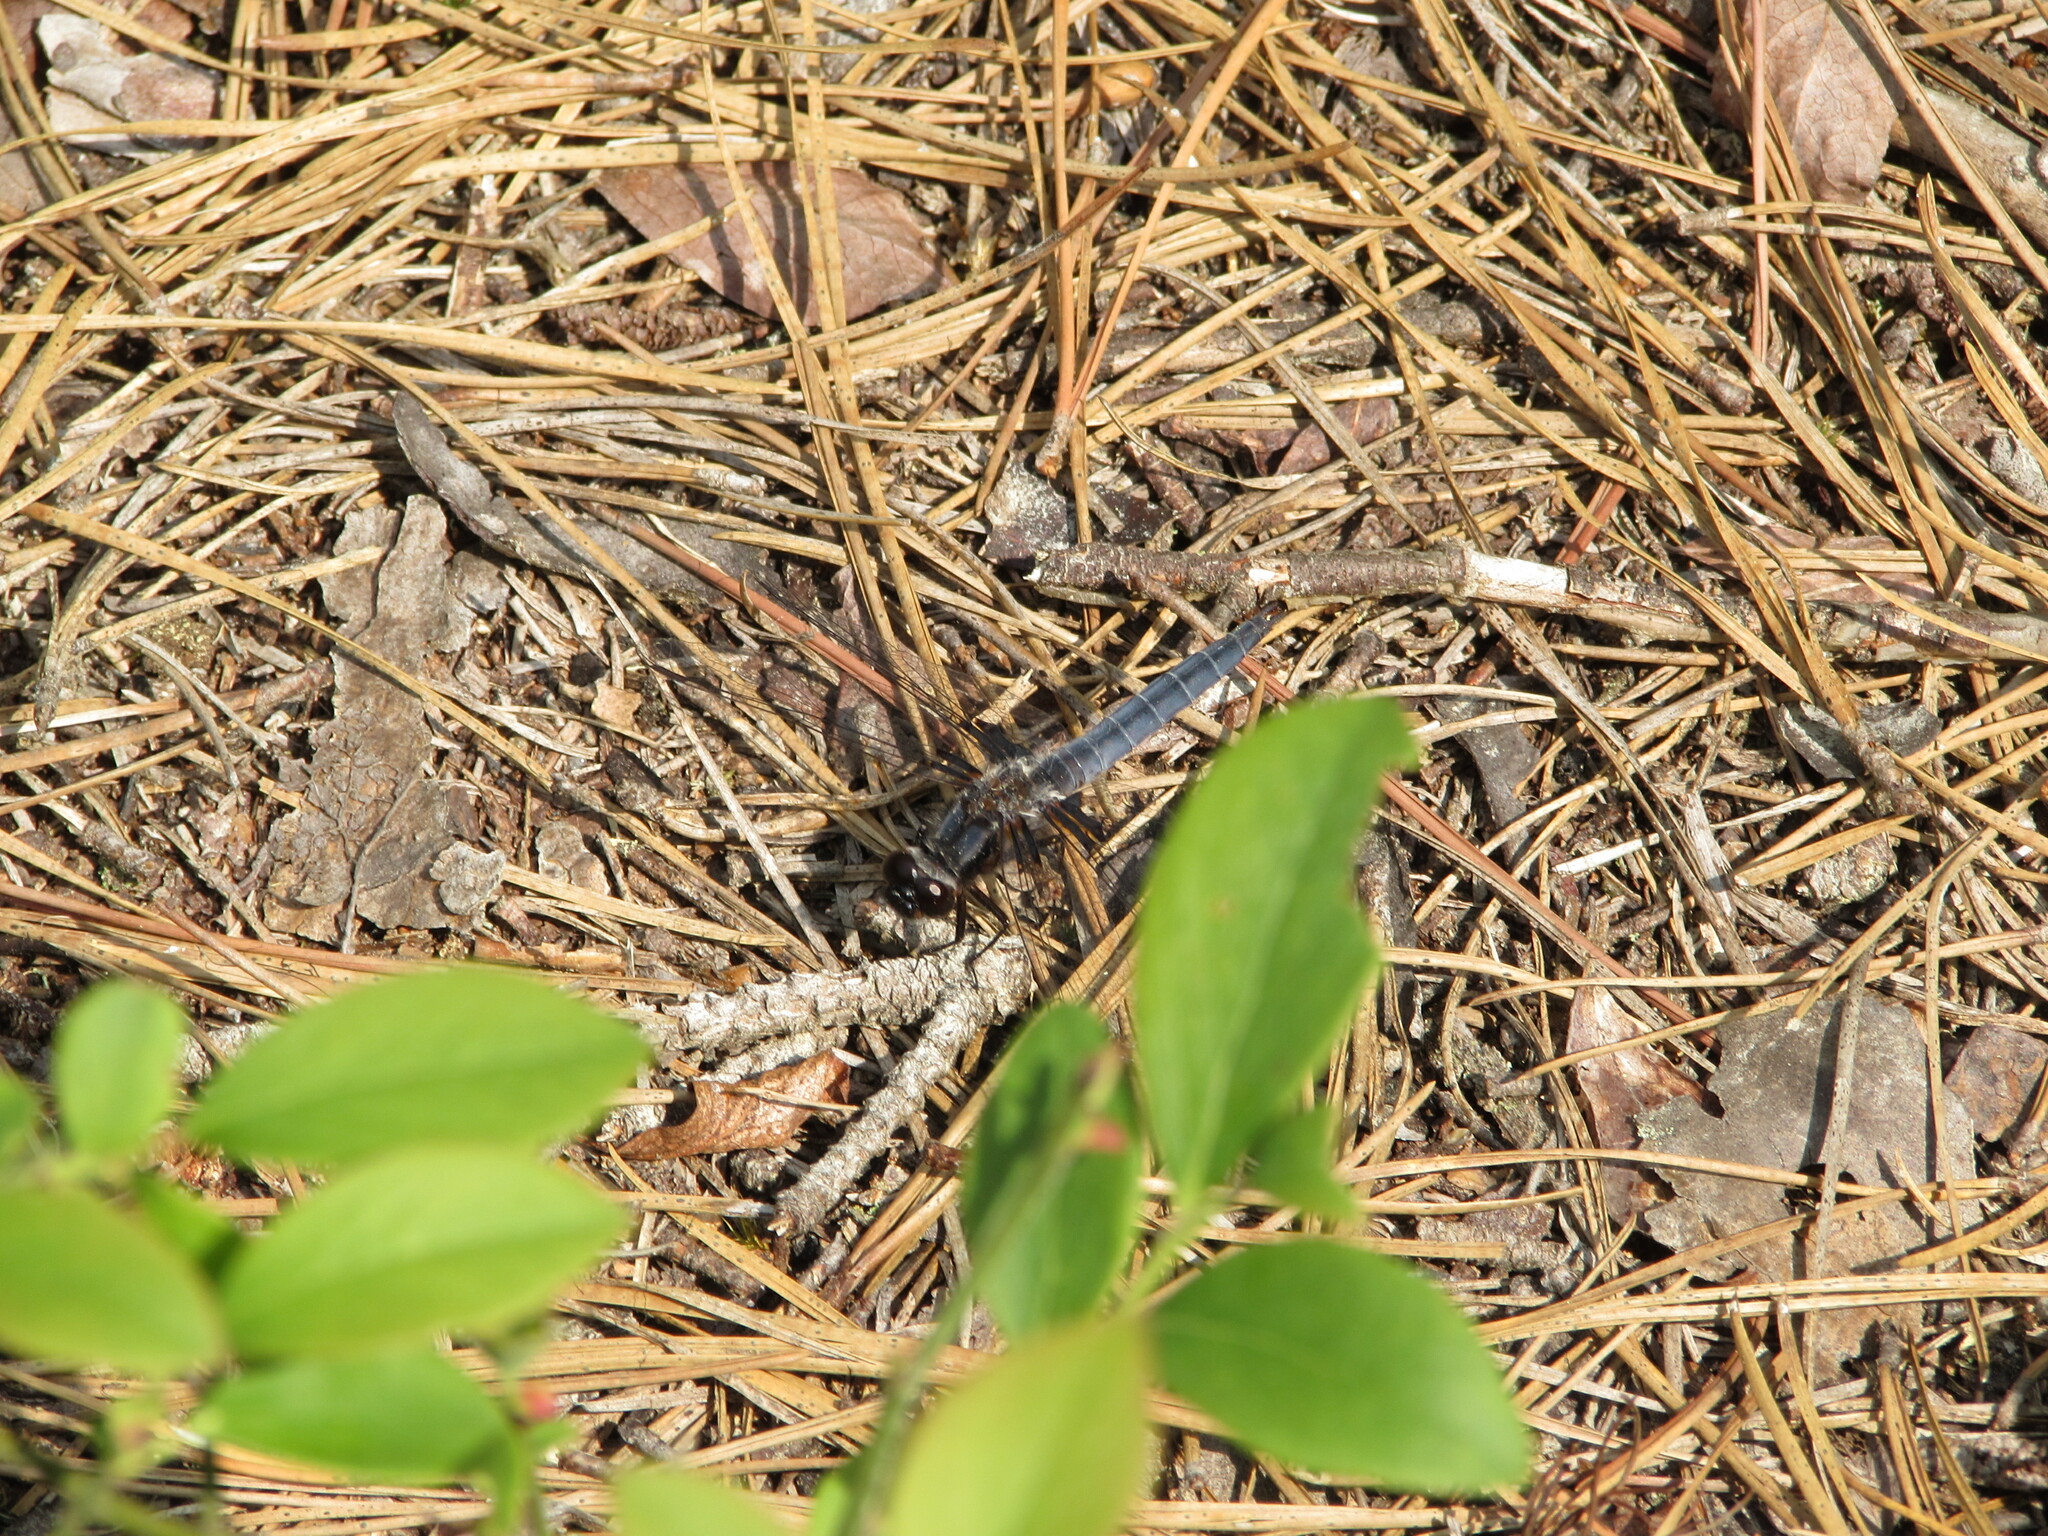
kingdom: Animalia
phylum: Arthropoda
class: Insecta
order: Odonata
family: Libellulidae
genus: Ladona
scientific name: Ladona deplanata
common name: Blue corporal
